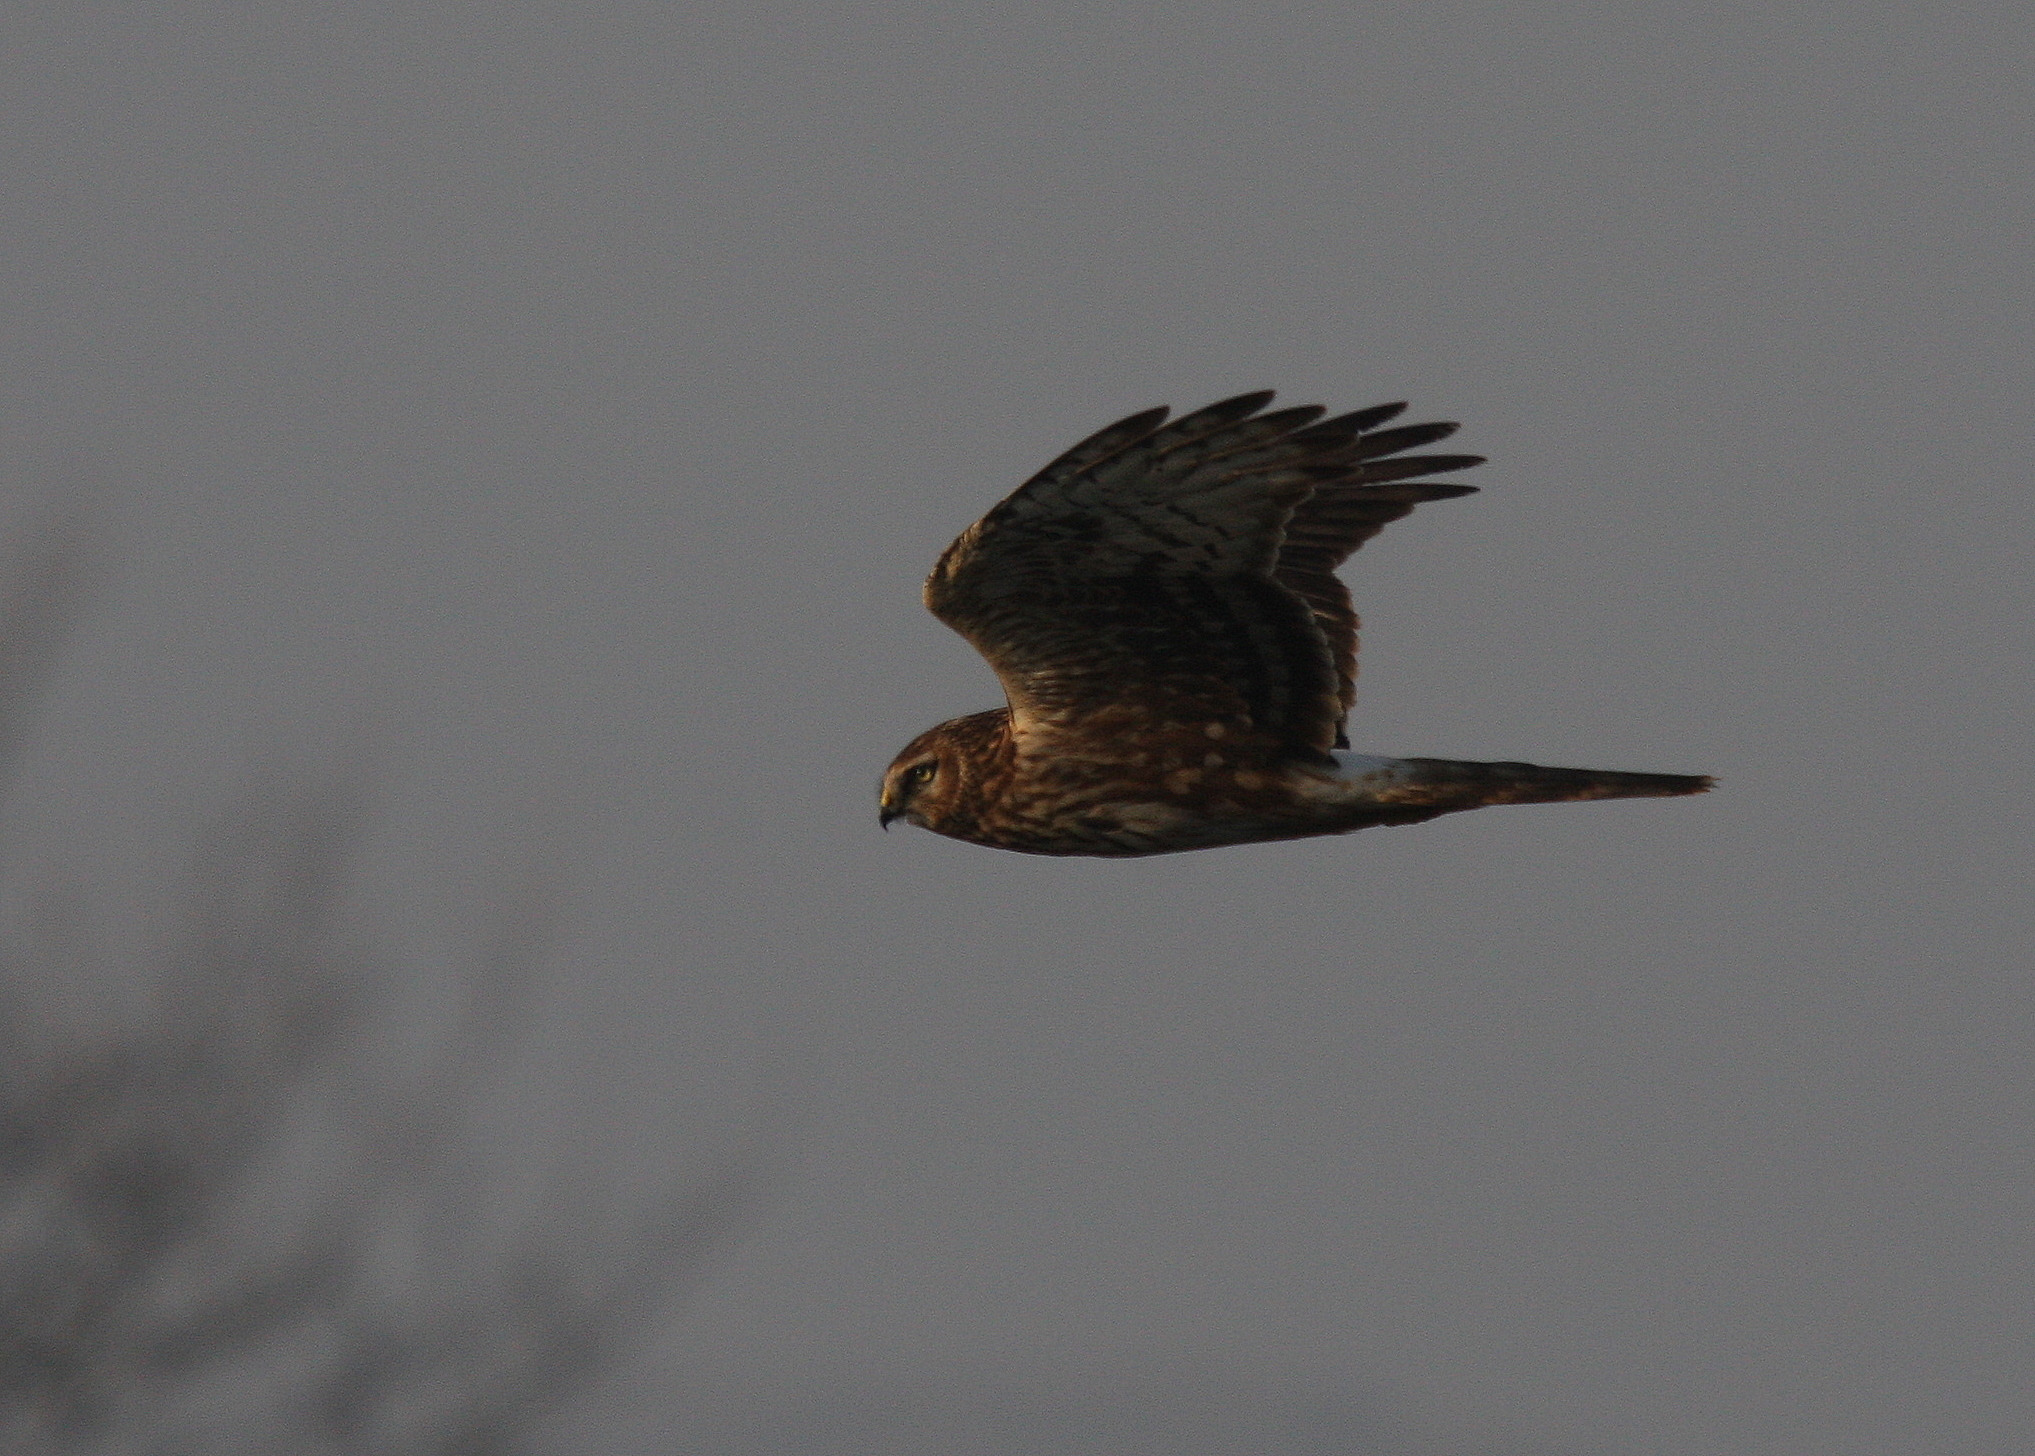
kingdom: Animalia
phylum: Chordata
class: Aves
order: Accipitriformes
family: Accipitridae
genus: Circus
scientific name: Circus cyaneus
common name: Hen harrier
